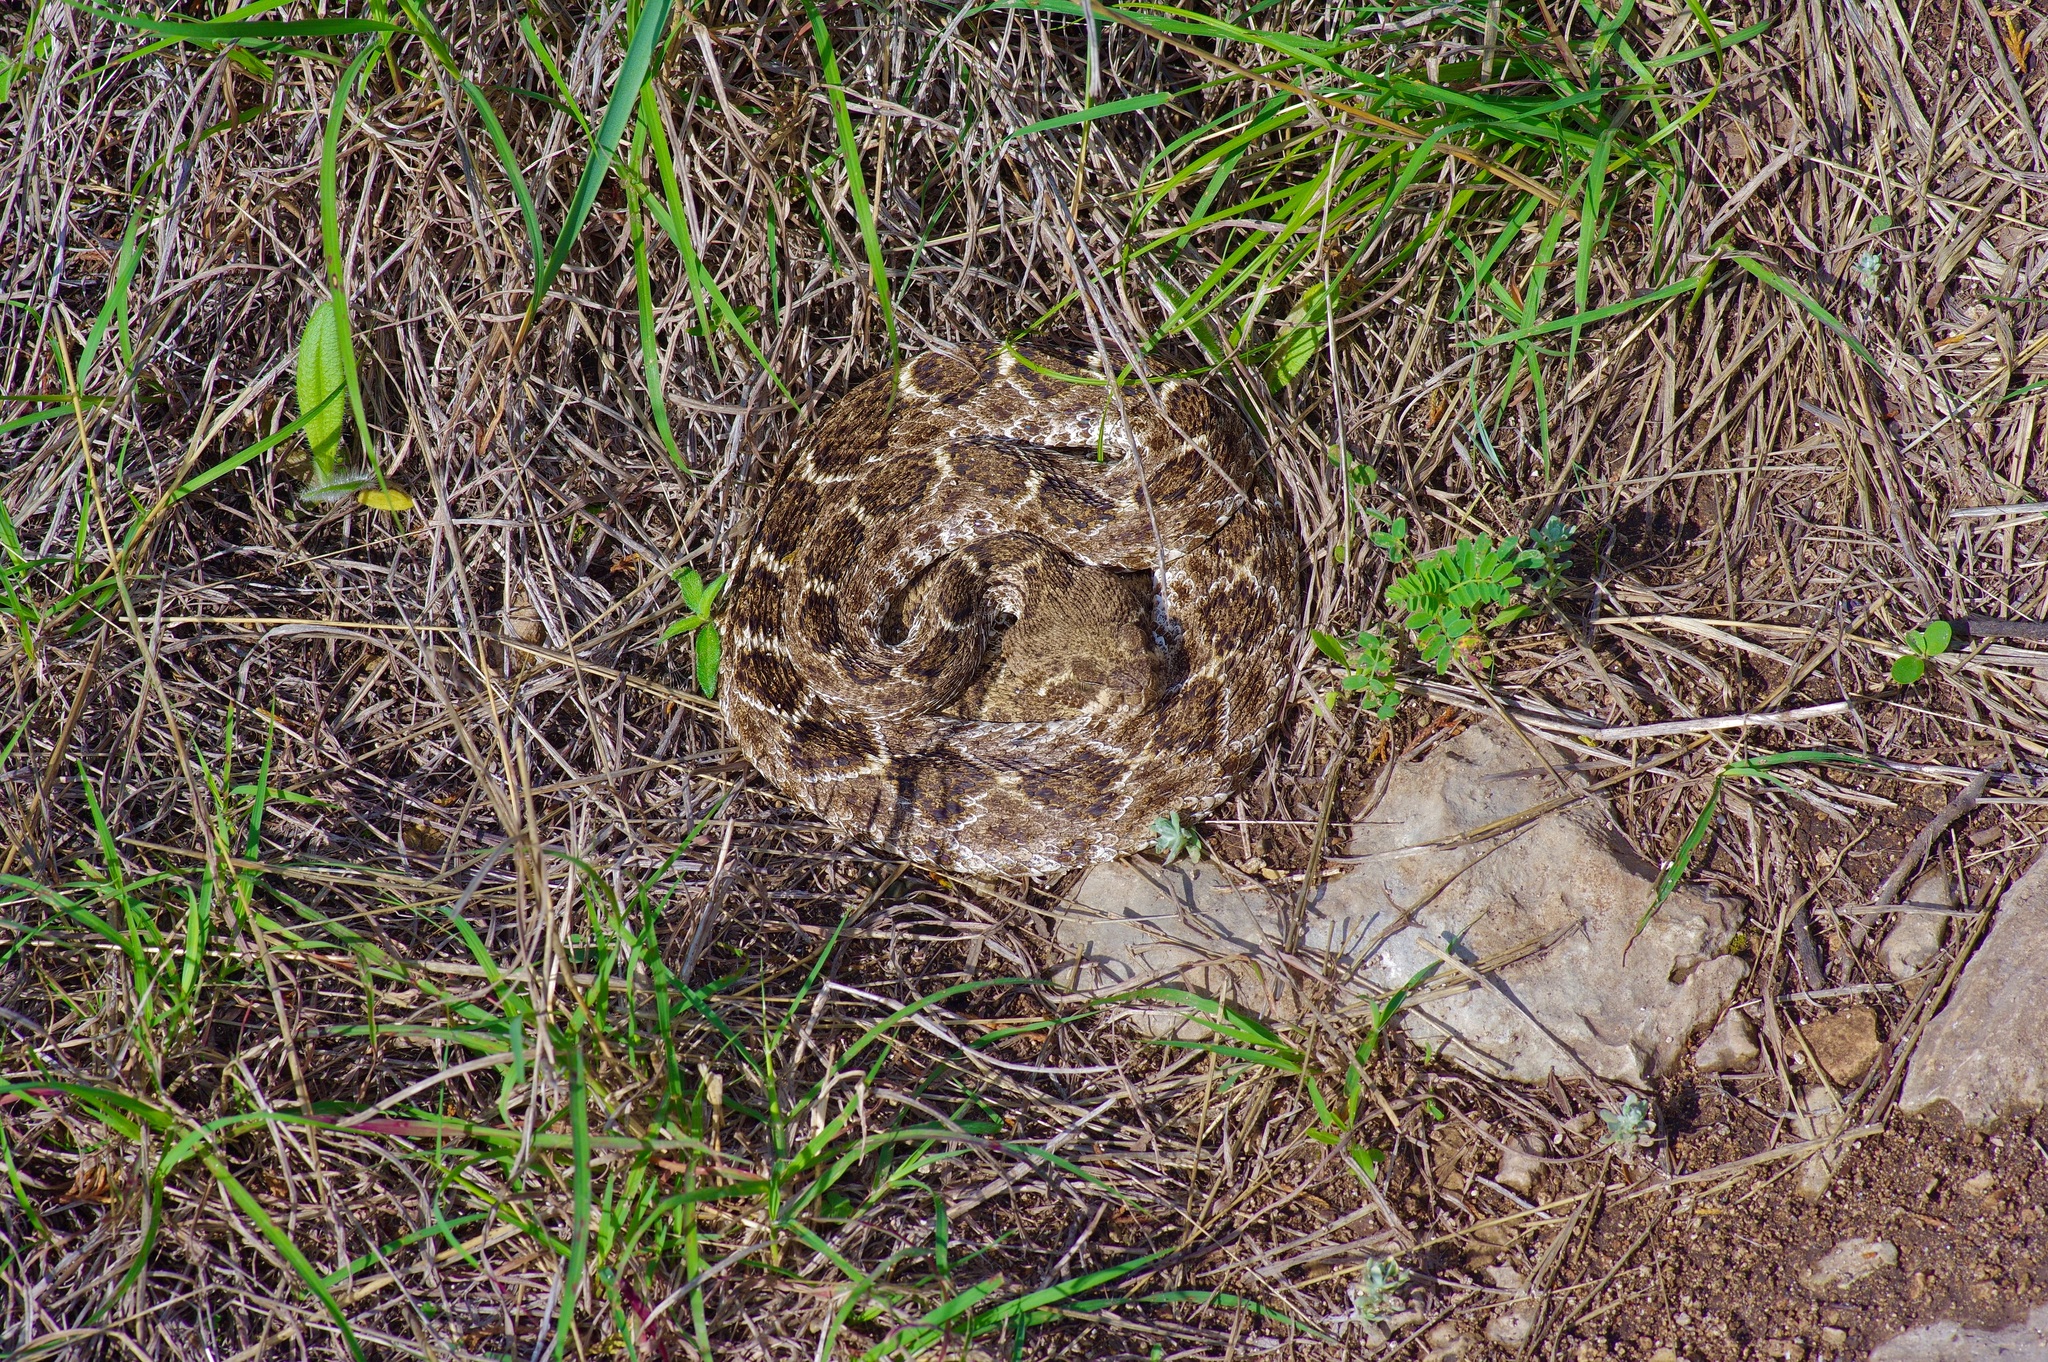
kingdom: Animalia
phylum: Chordata
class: Squamata
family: Viperidae
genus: Crotalus
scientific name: Crotalus atrox
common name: Western diamond-backed rattlesnake
